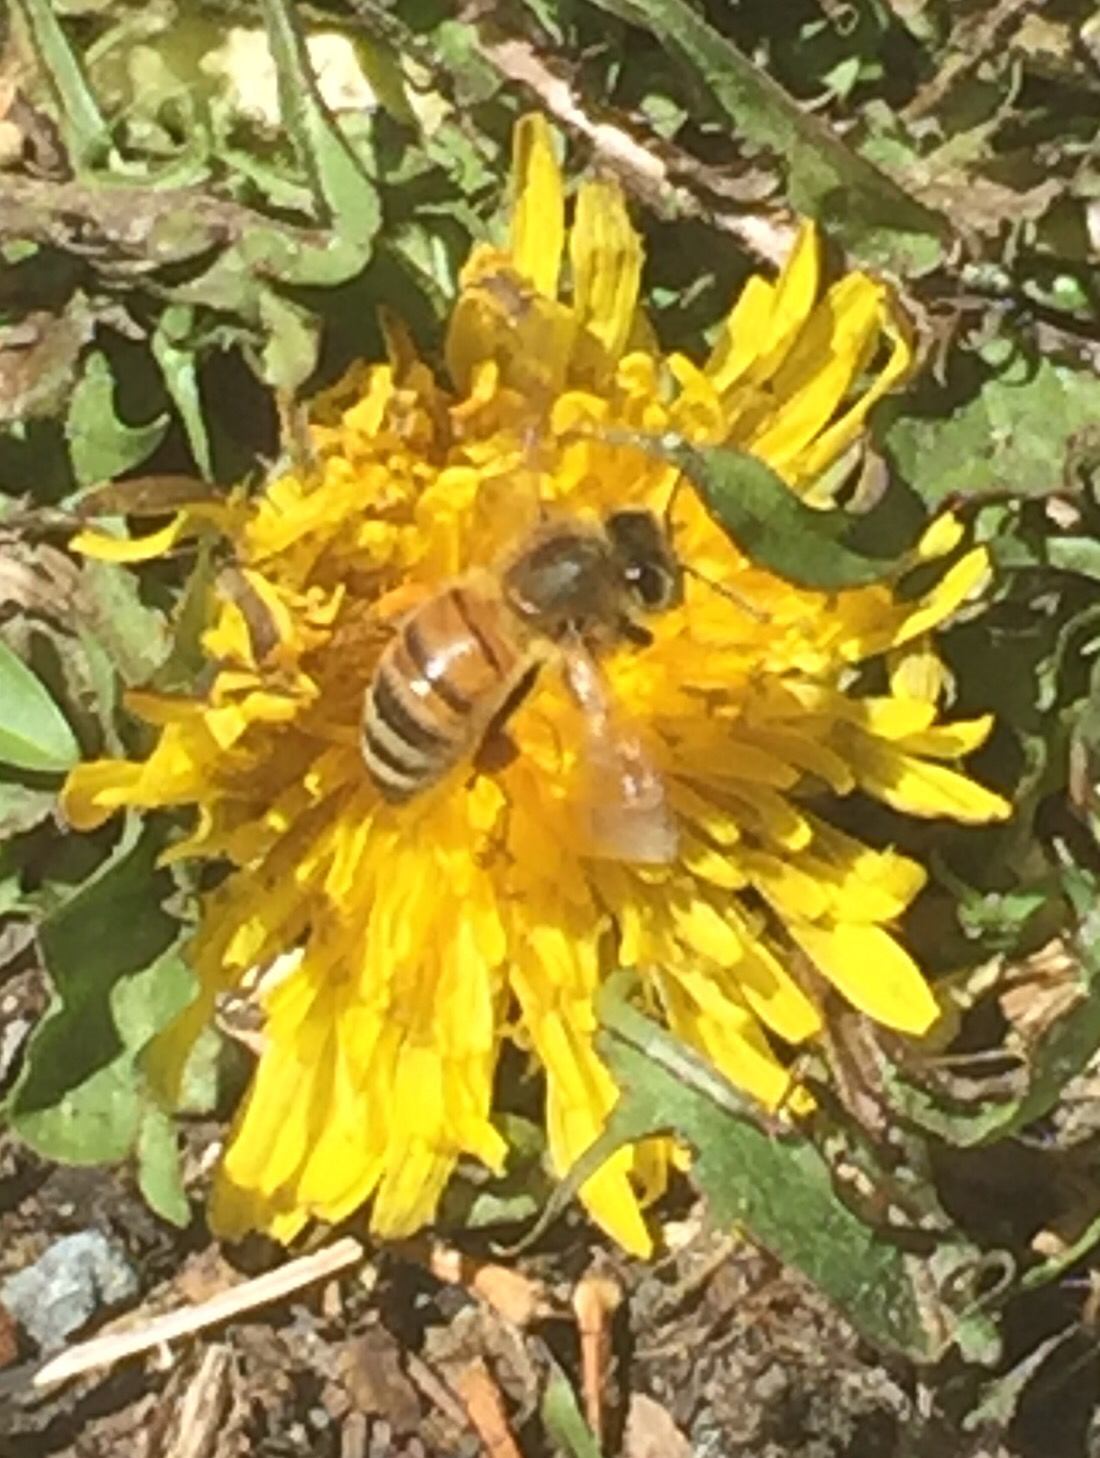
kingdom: Animalia
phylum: Arthropoda
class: Insecta
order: Hymenoptera
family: Apidae
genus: Apis
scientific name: Apis mellifera
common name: Honey bee
